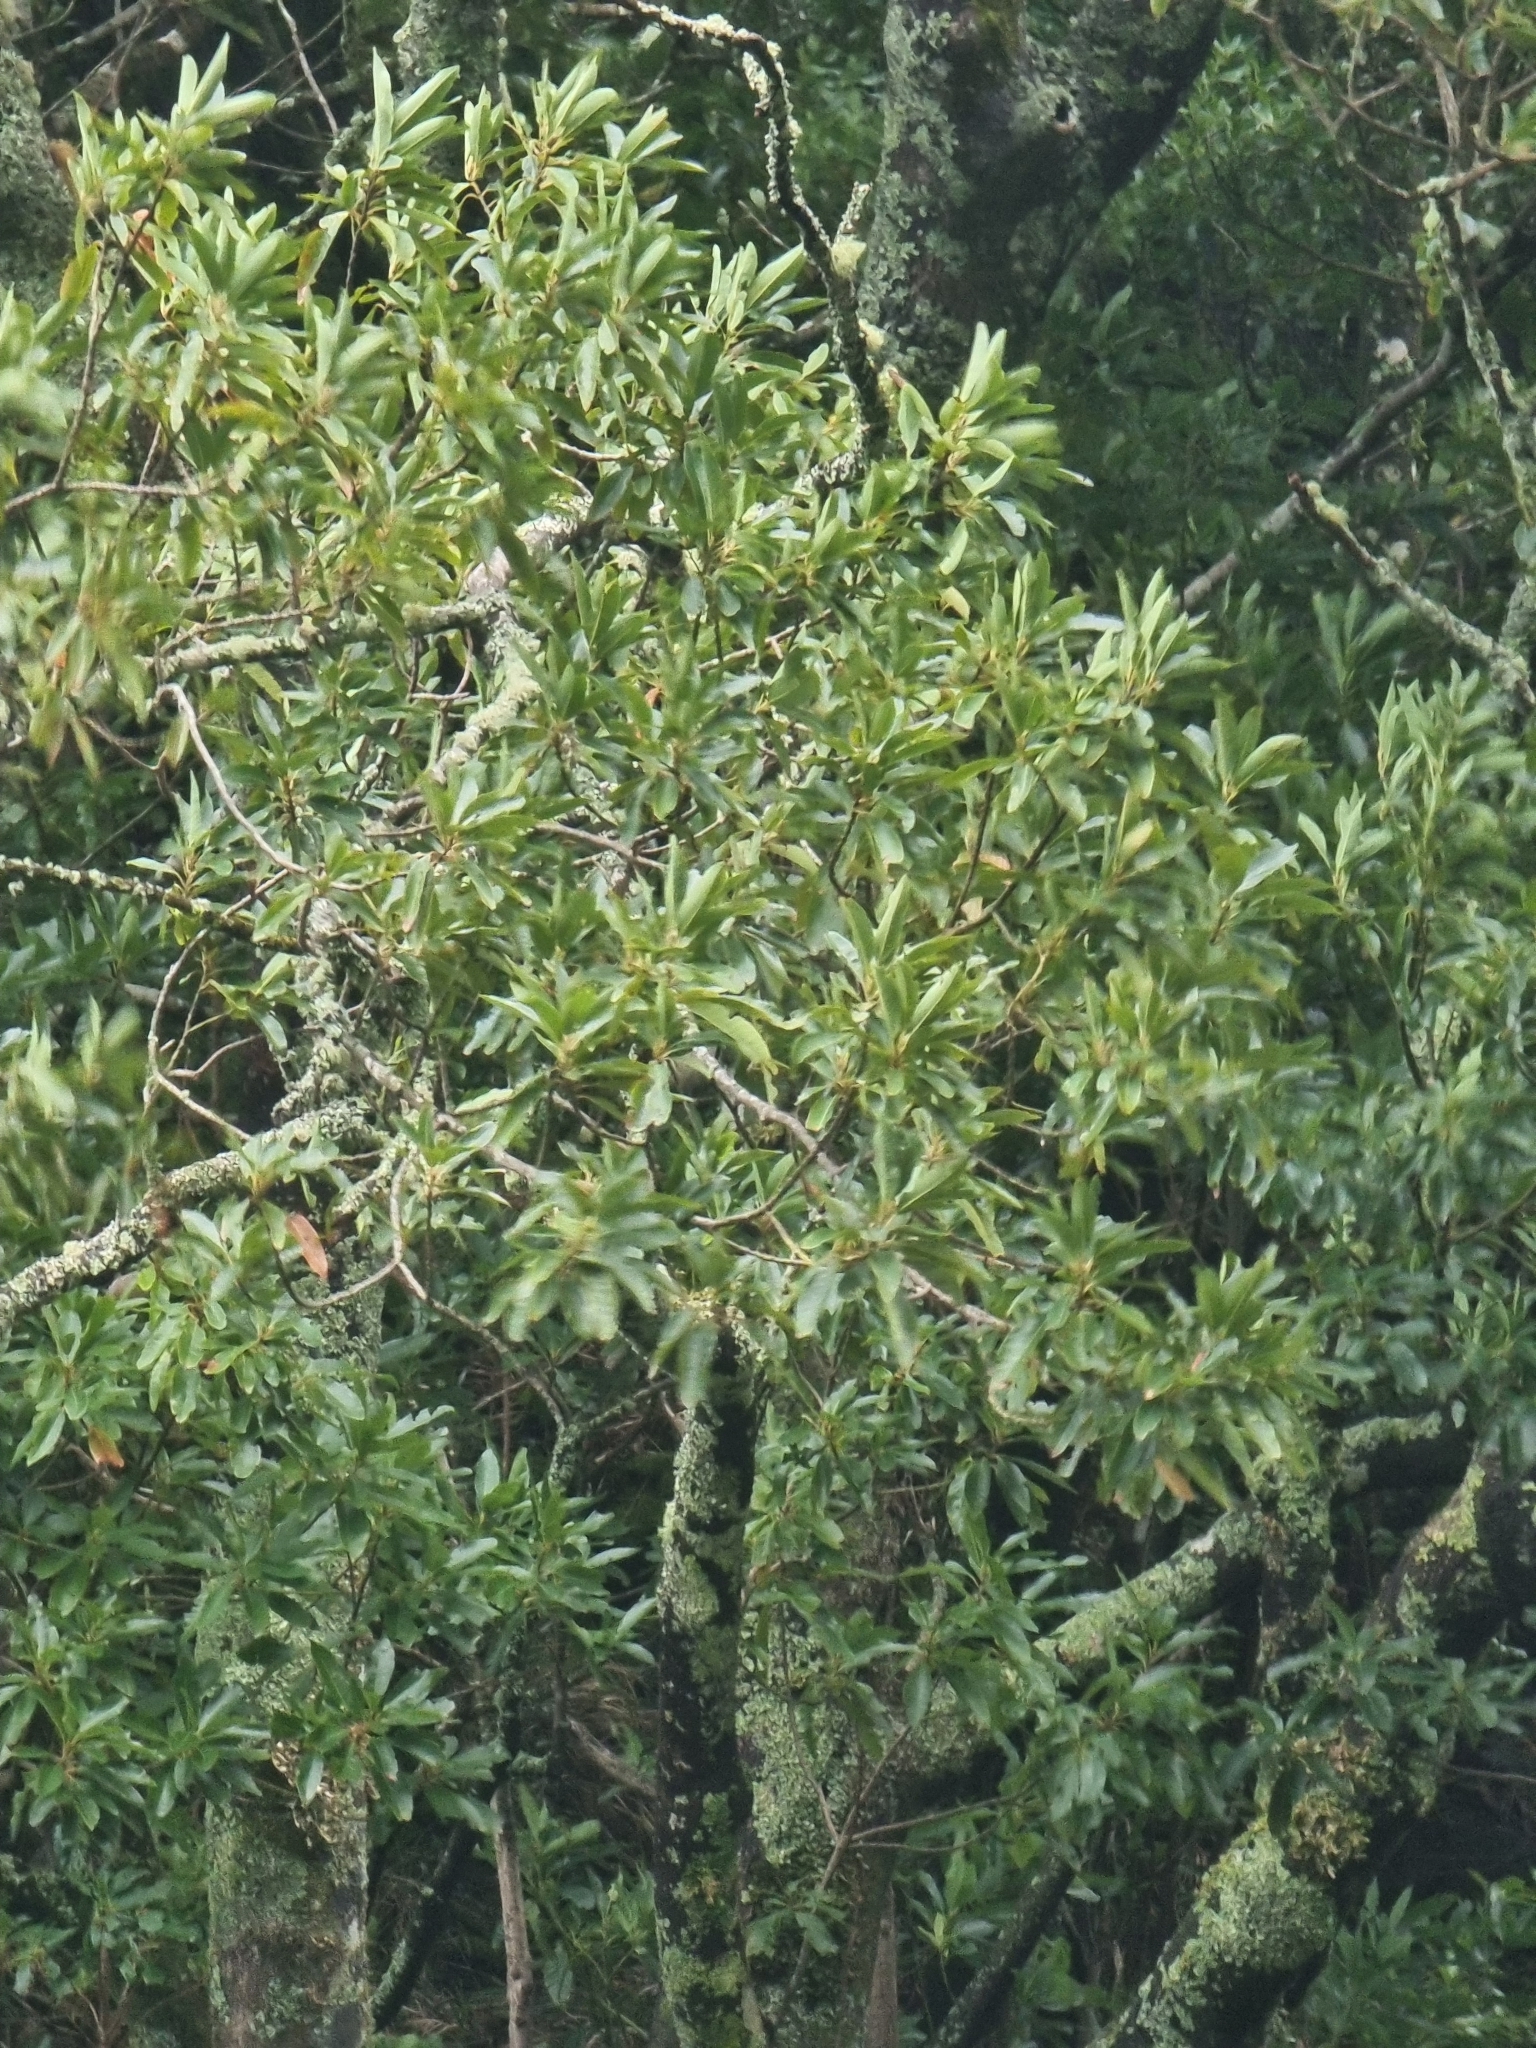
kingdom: Plantae
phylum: Tracheophyta
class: Magnoliopsida
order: Laurales
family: Lauraceae
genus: Persea
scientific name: Persea indica
